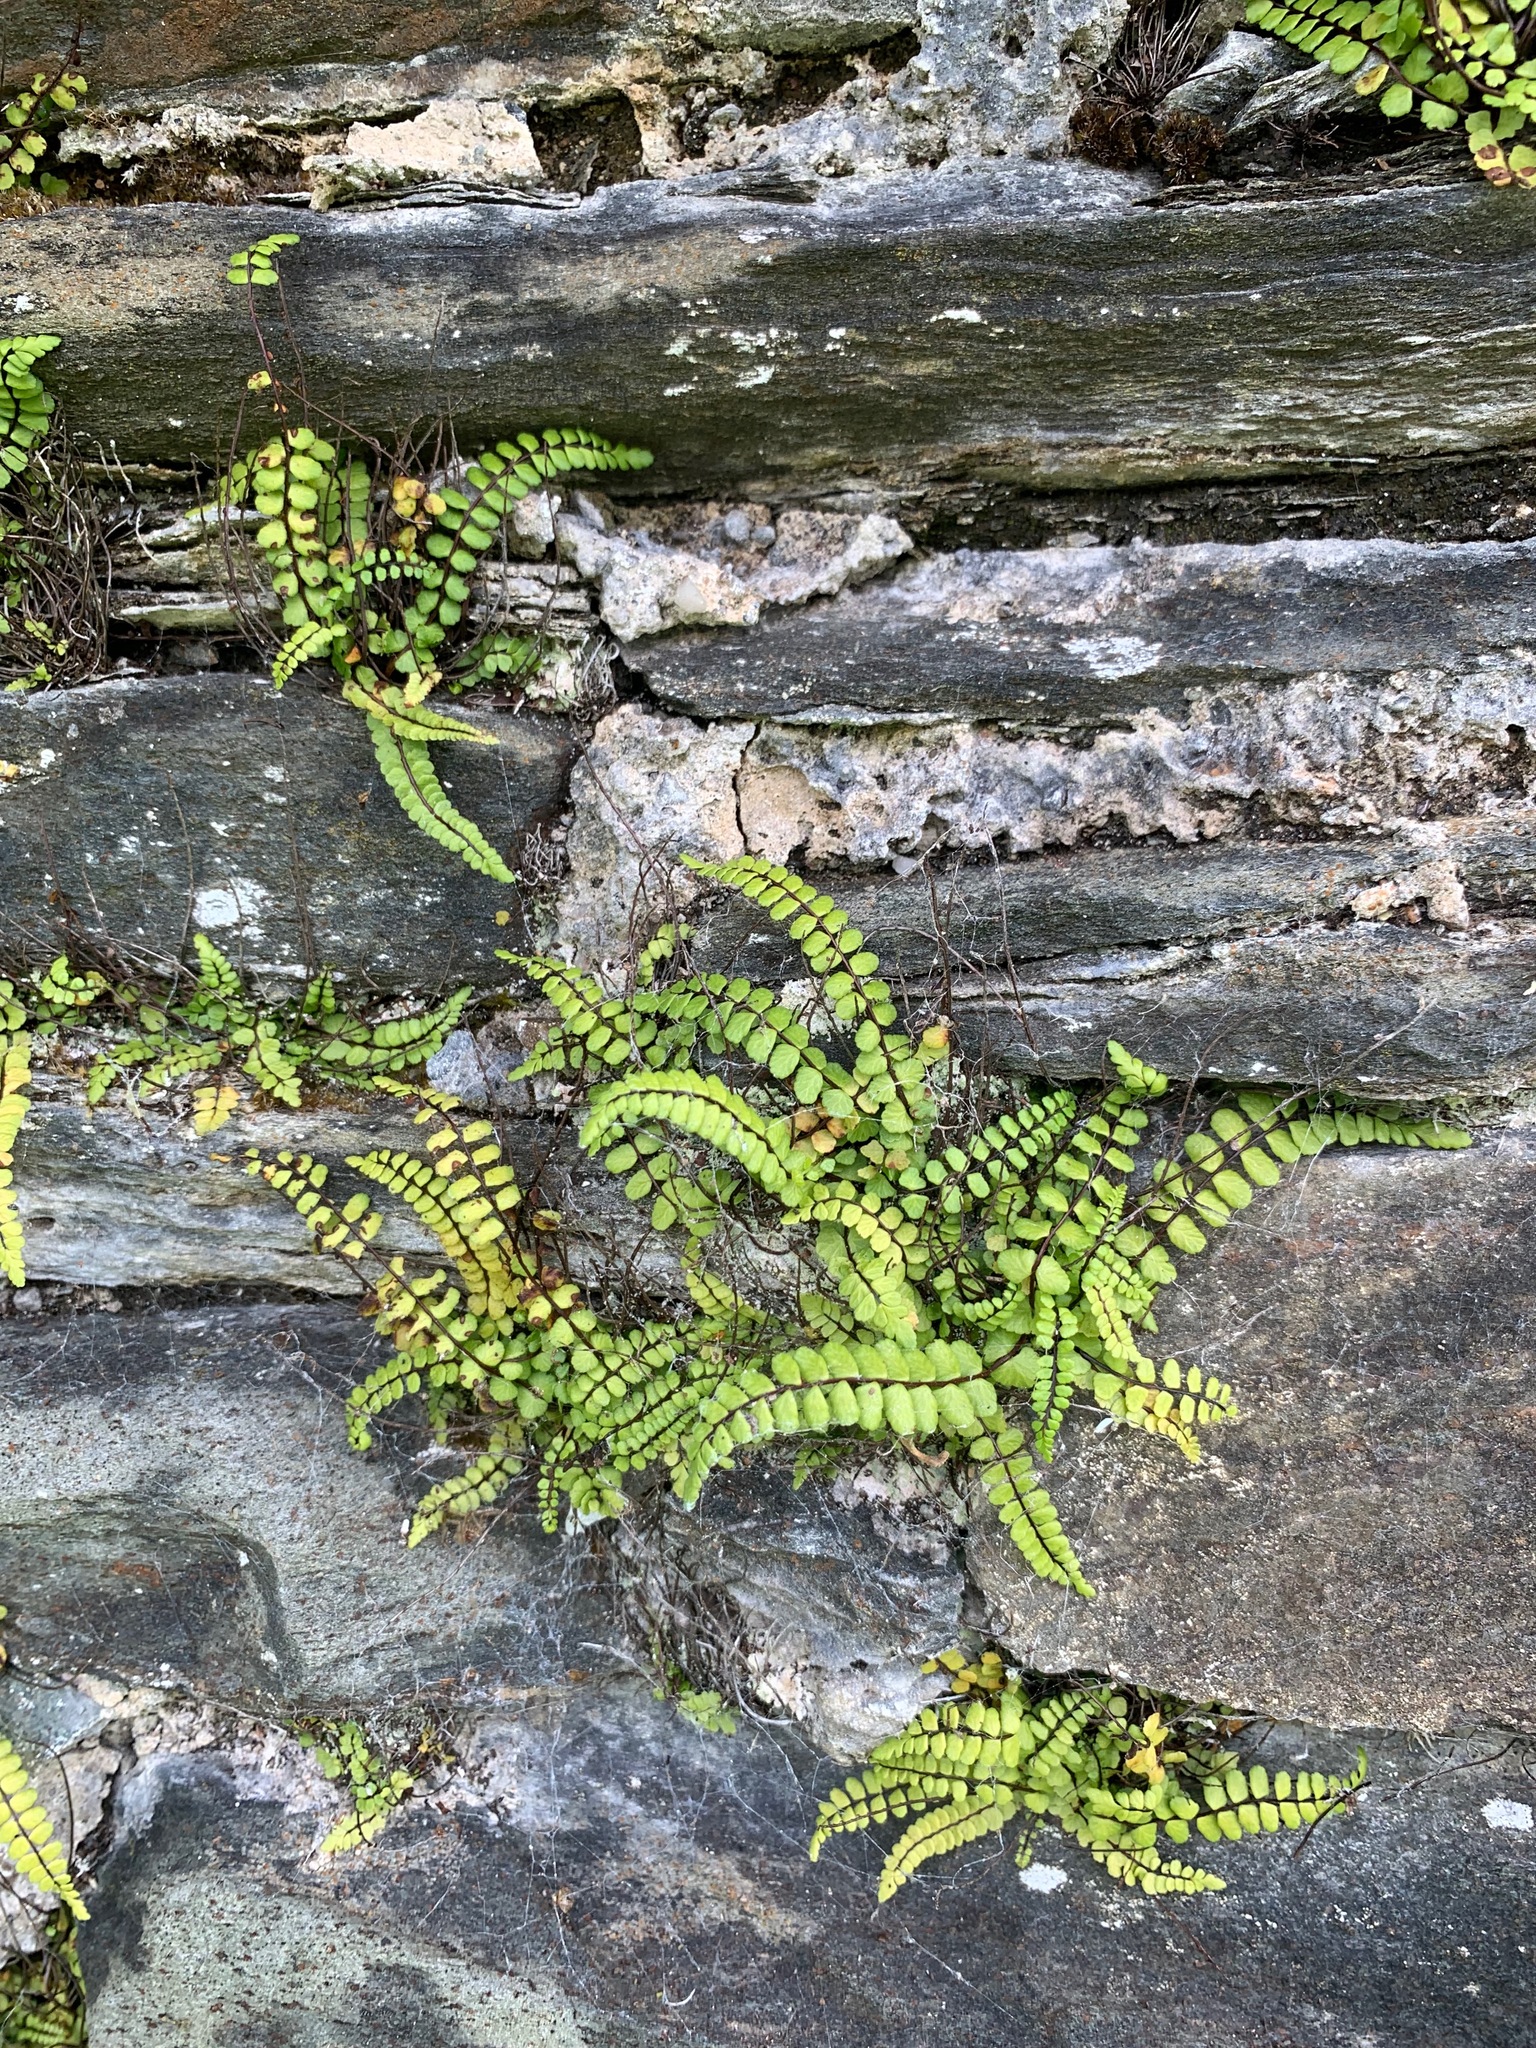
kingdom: Plantae
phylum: Tracheophyta
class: Polypodiopsida
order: Polypodiales
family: Aspleniaceae
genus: Asplenium
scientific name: Asplenium trichomanes
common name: Maidenhair spleenwort
